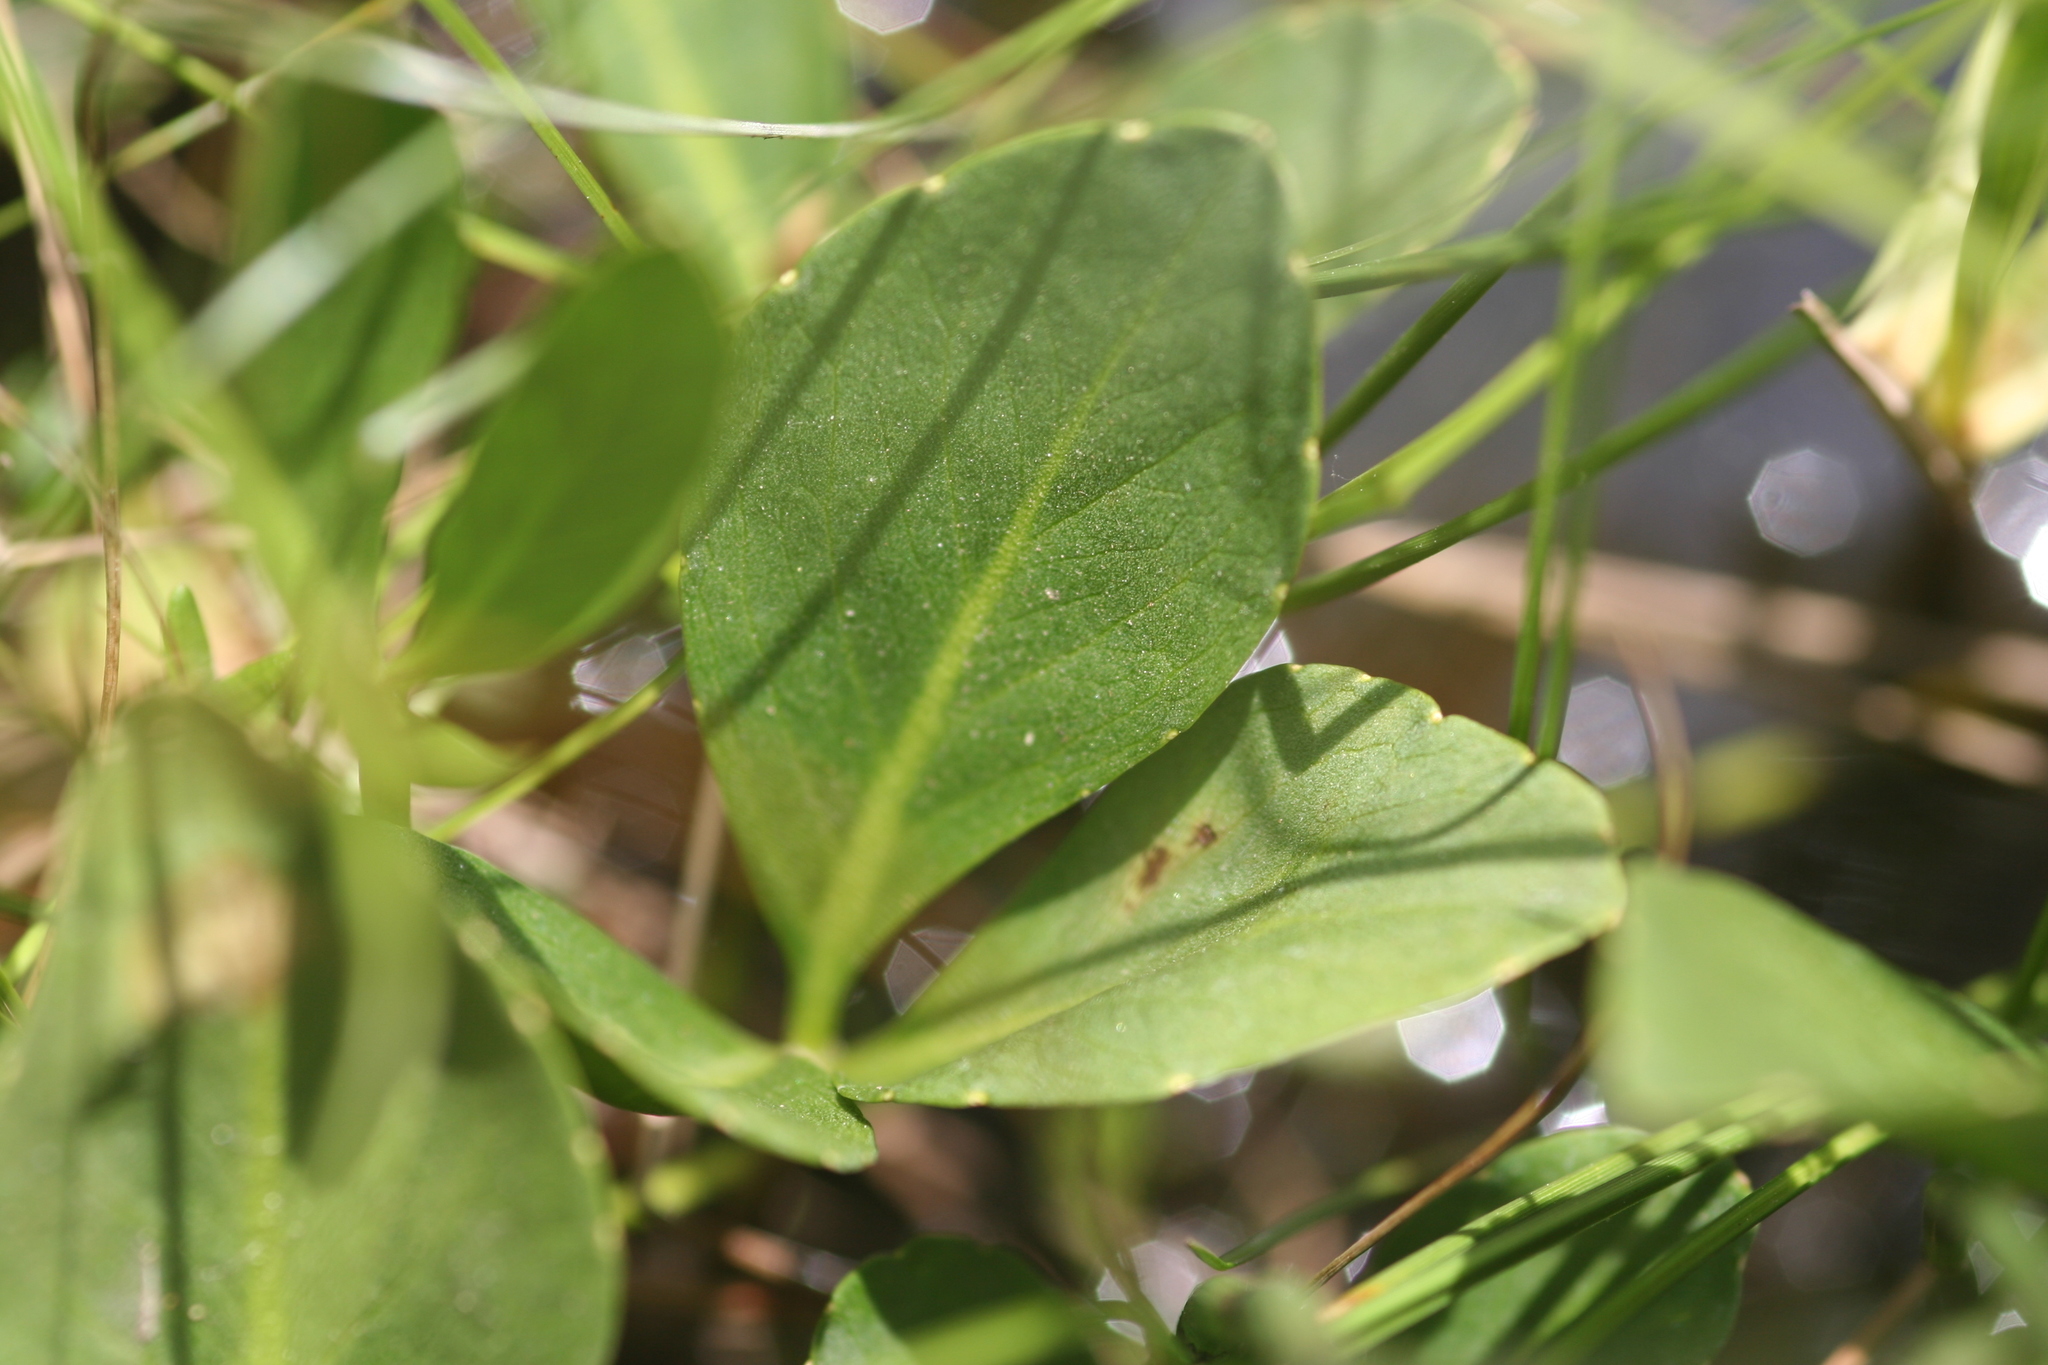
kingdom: Plantae
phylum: Tracheophyta
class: Magnoliopsida
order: Asterales
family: Menyanthaceae
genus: Menyanthes
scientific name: Menyanthes trifoliata
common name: Bogbean
